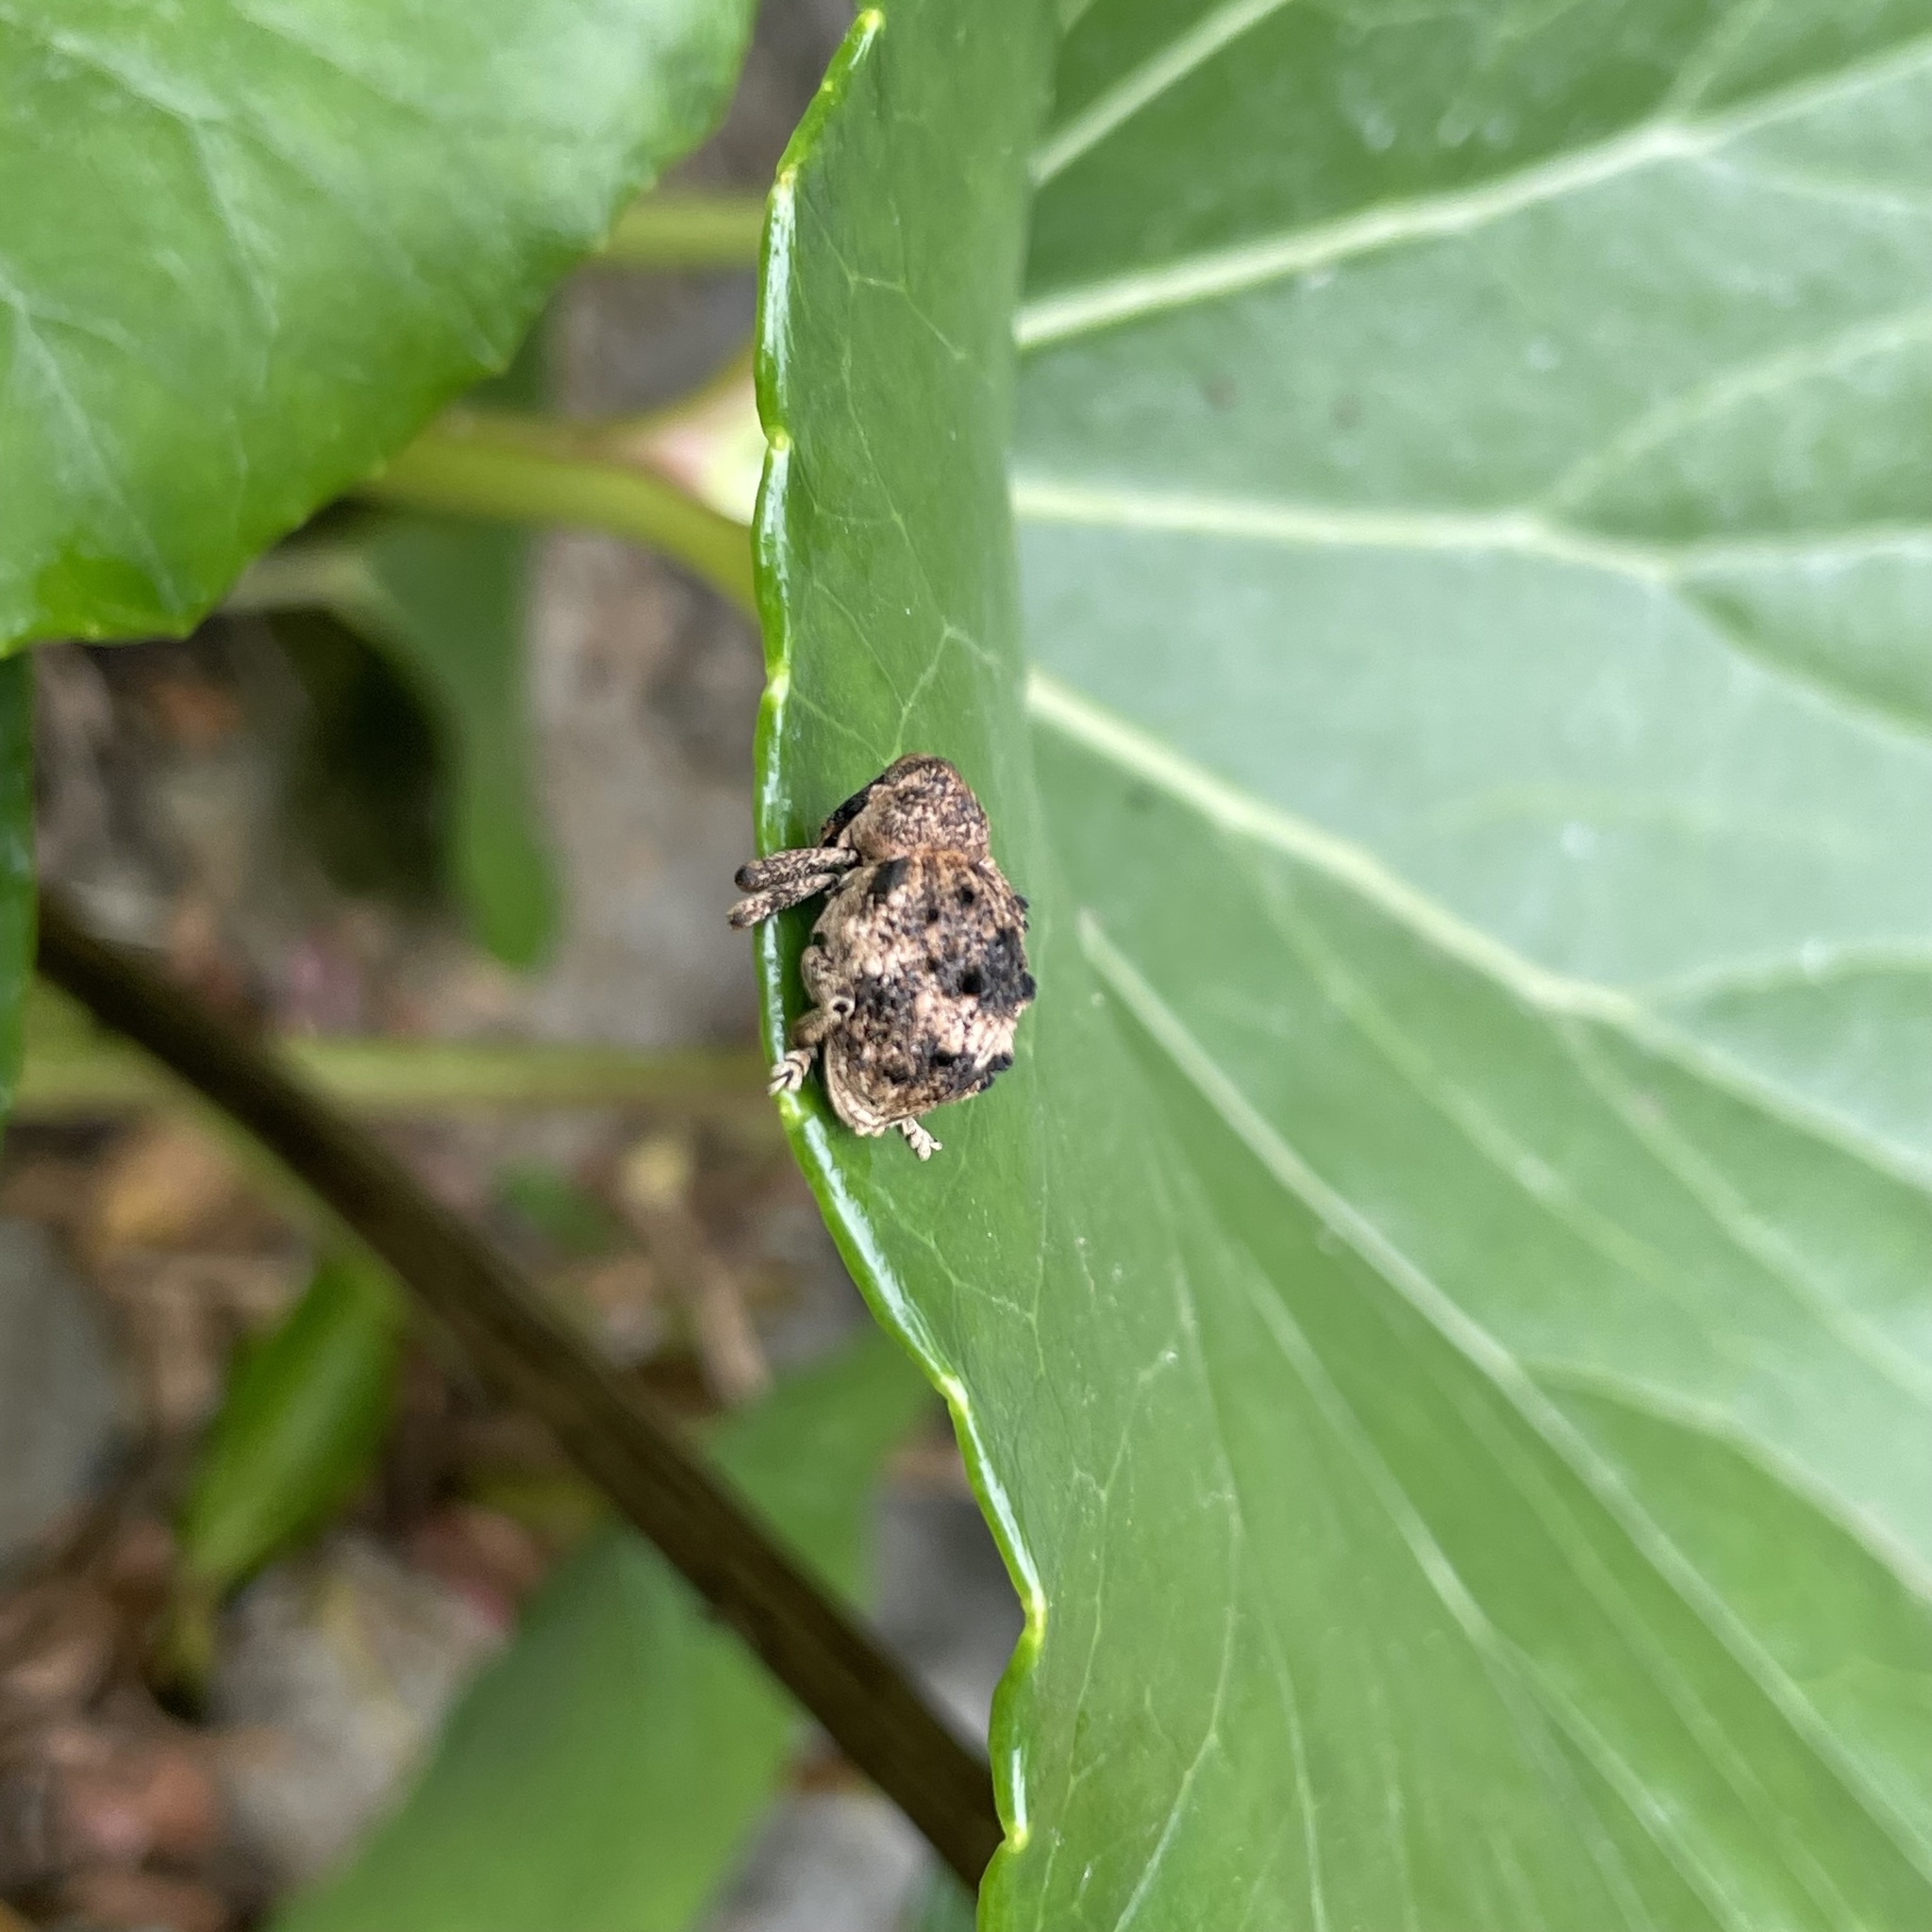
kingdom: Animalia
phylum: Arthropoda
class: Insecta
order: Coleoptera
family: Brachyceridae
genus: Desmidophorus
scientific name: Desmidophorus crassus
